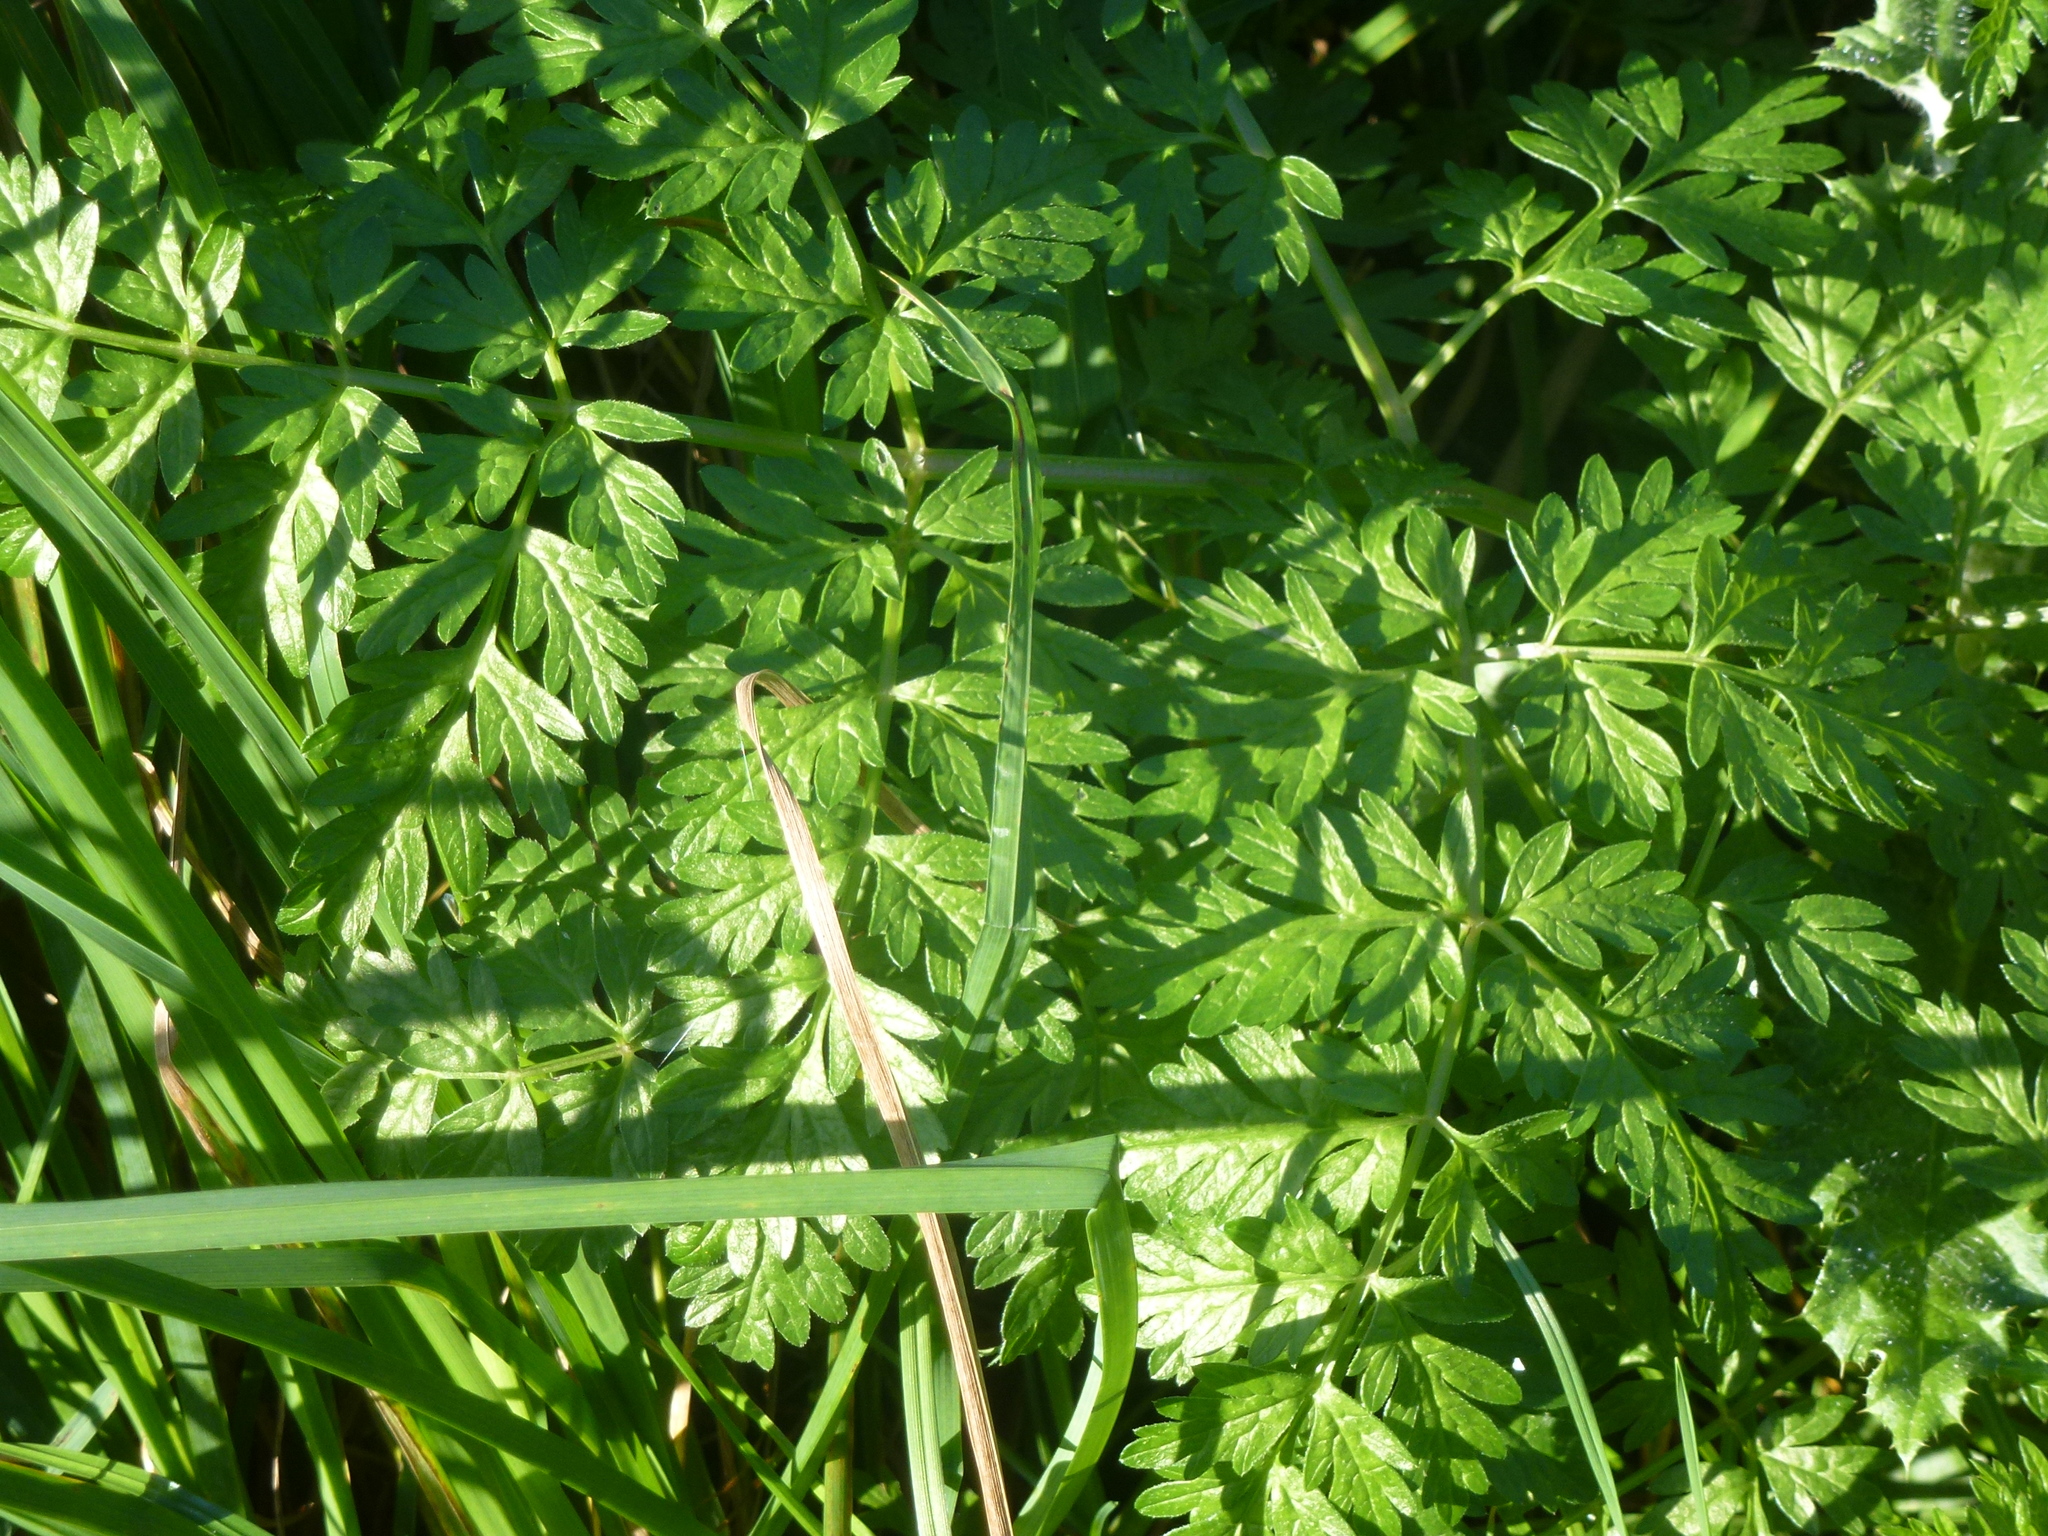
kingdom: Plantae
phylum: Tracheophyta
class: Magnoliopsida
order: Apiales
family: Apiaceae
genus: Anthriscus
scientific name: Anthriscus cerefolium
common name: Garden chervil
